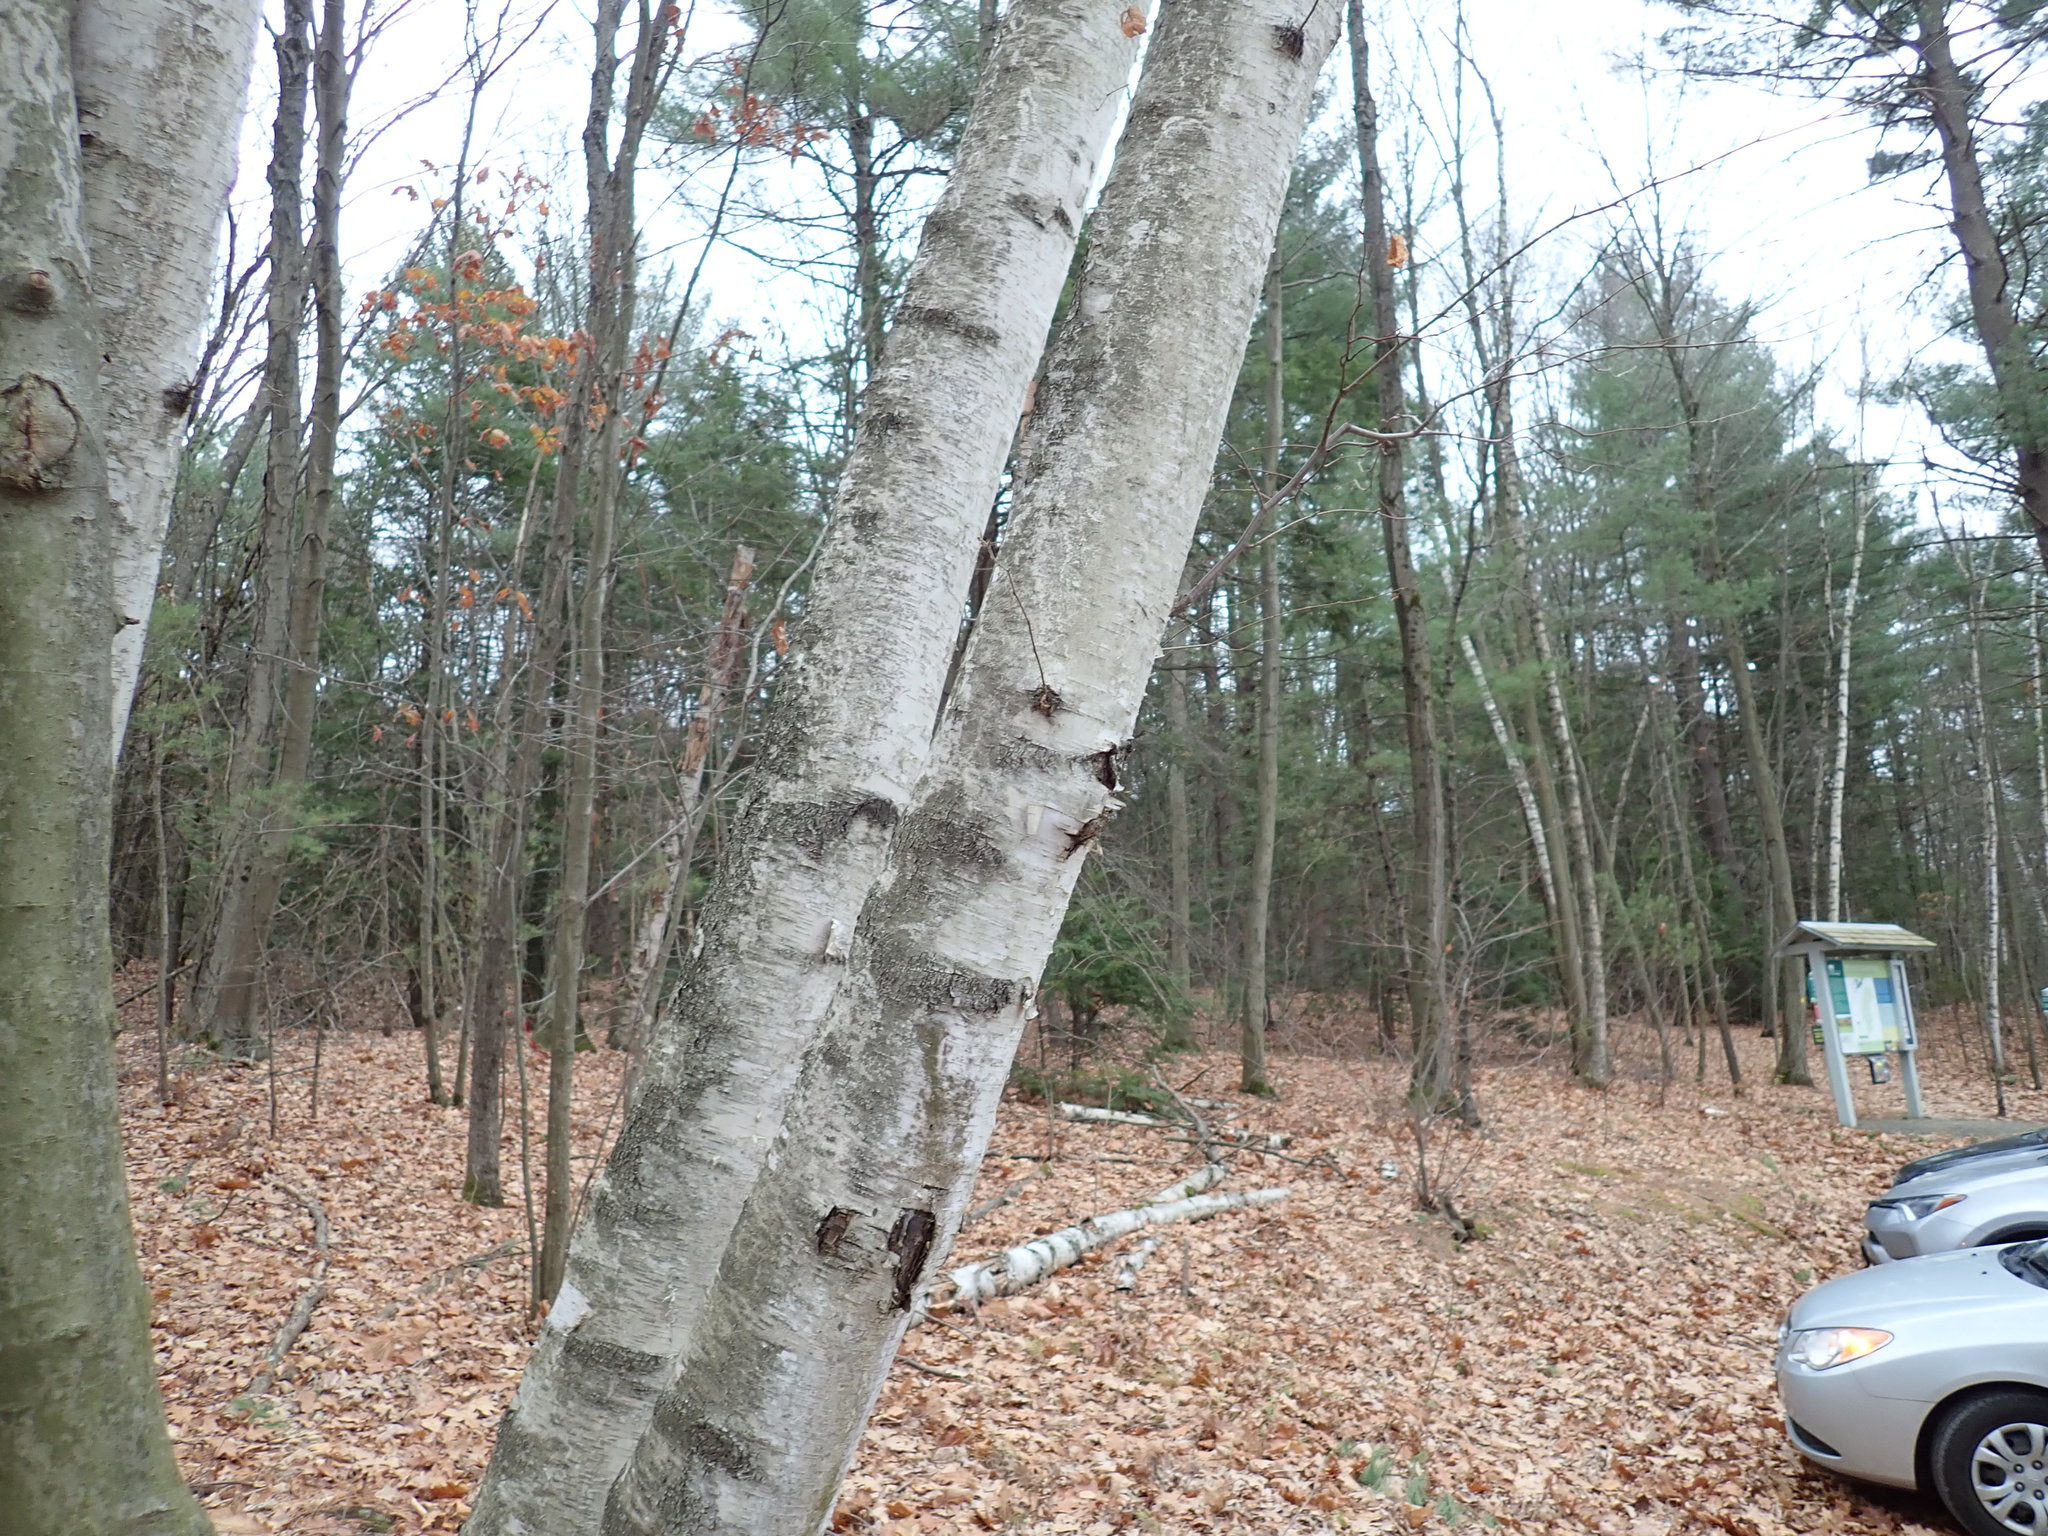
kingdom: Plantae
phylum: Tracheophyta
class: Magnoliopsida
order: Fagales
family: Betulaceae
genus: Betula
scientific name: Betula papyrifera
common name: Paper birch
